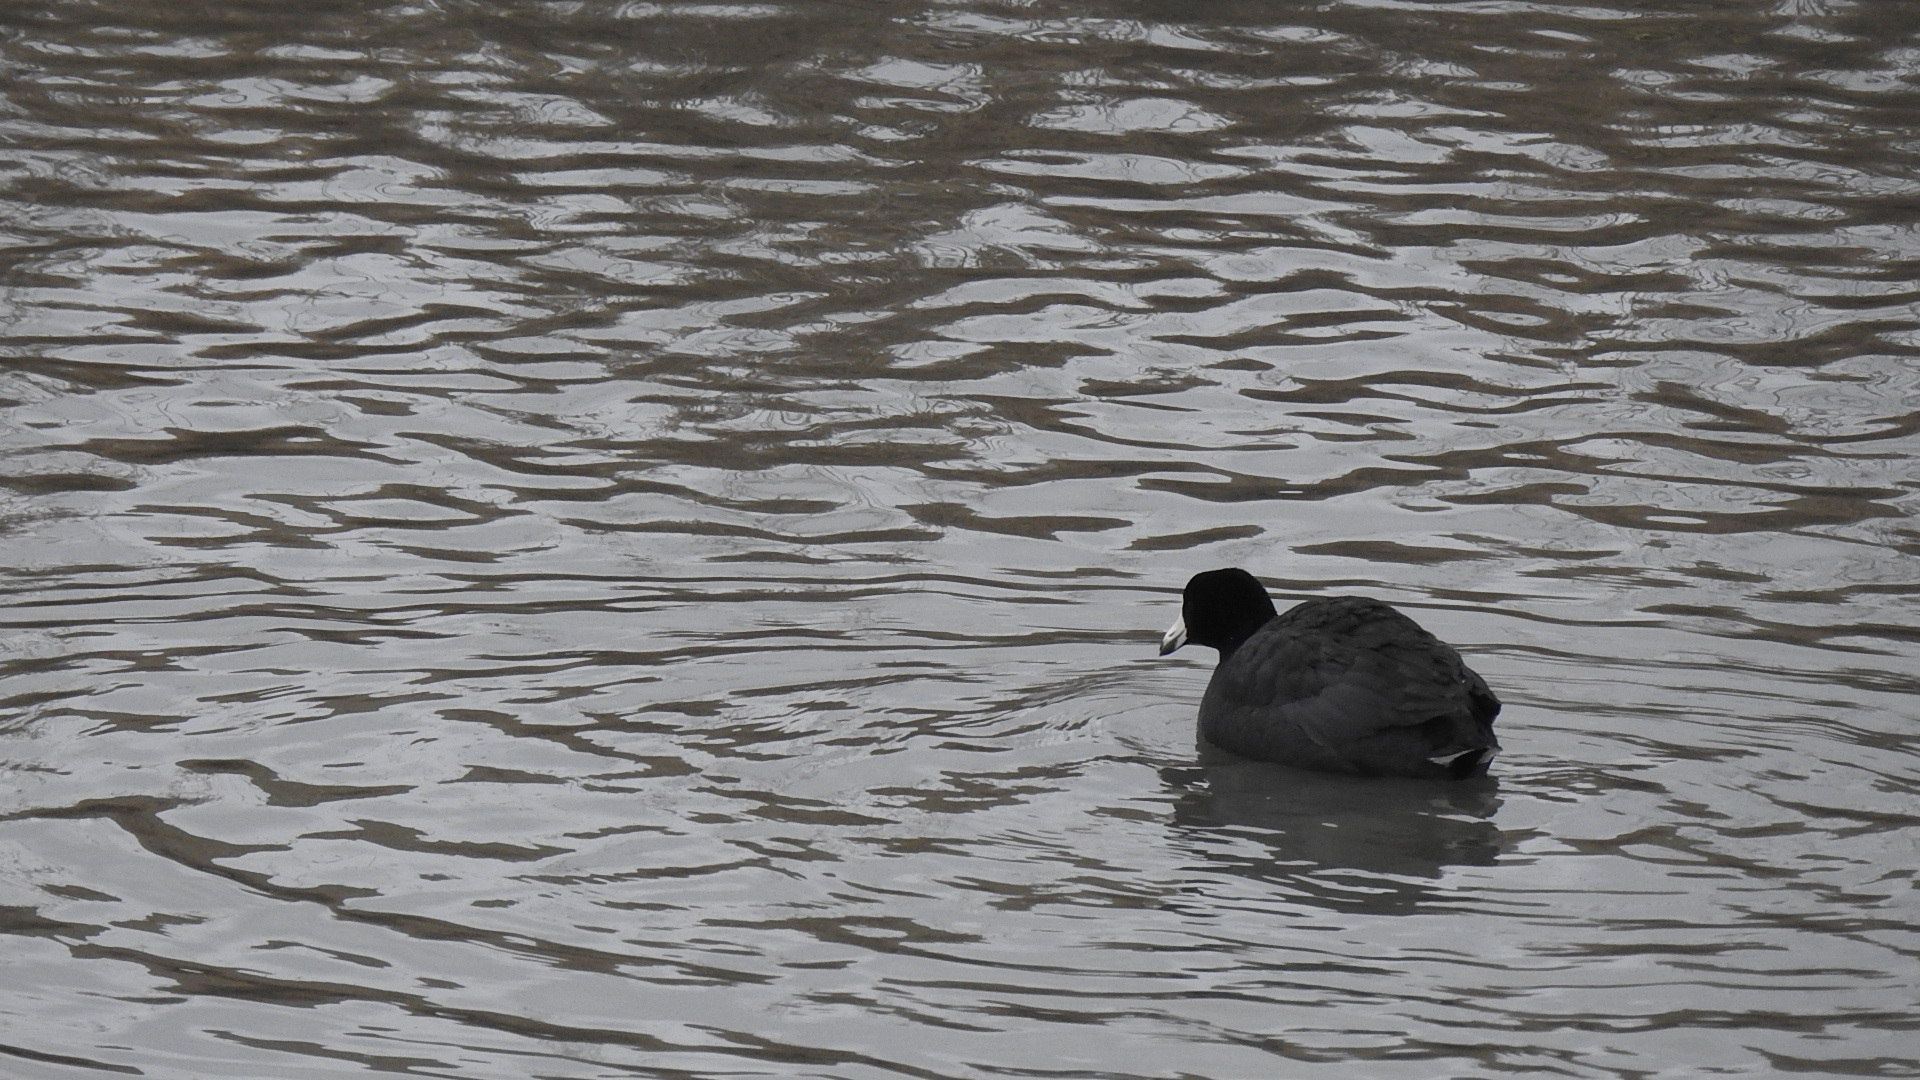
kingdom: Animalia
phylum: Chordata
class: Aves
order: Gruiformes
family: Rallidae
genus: Fulica
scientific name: Fulica americana
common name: American coot
